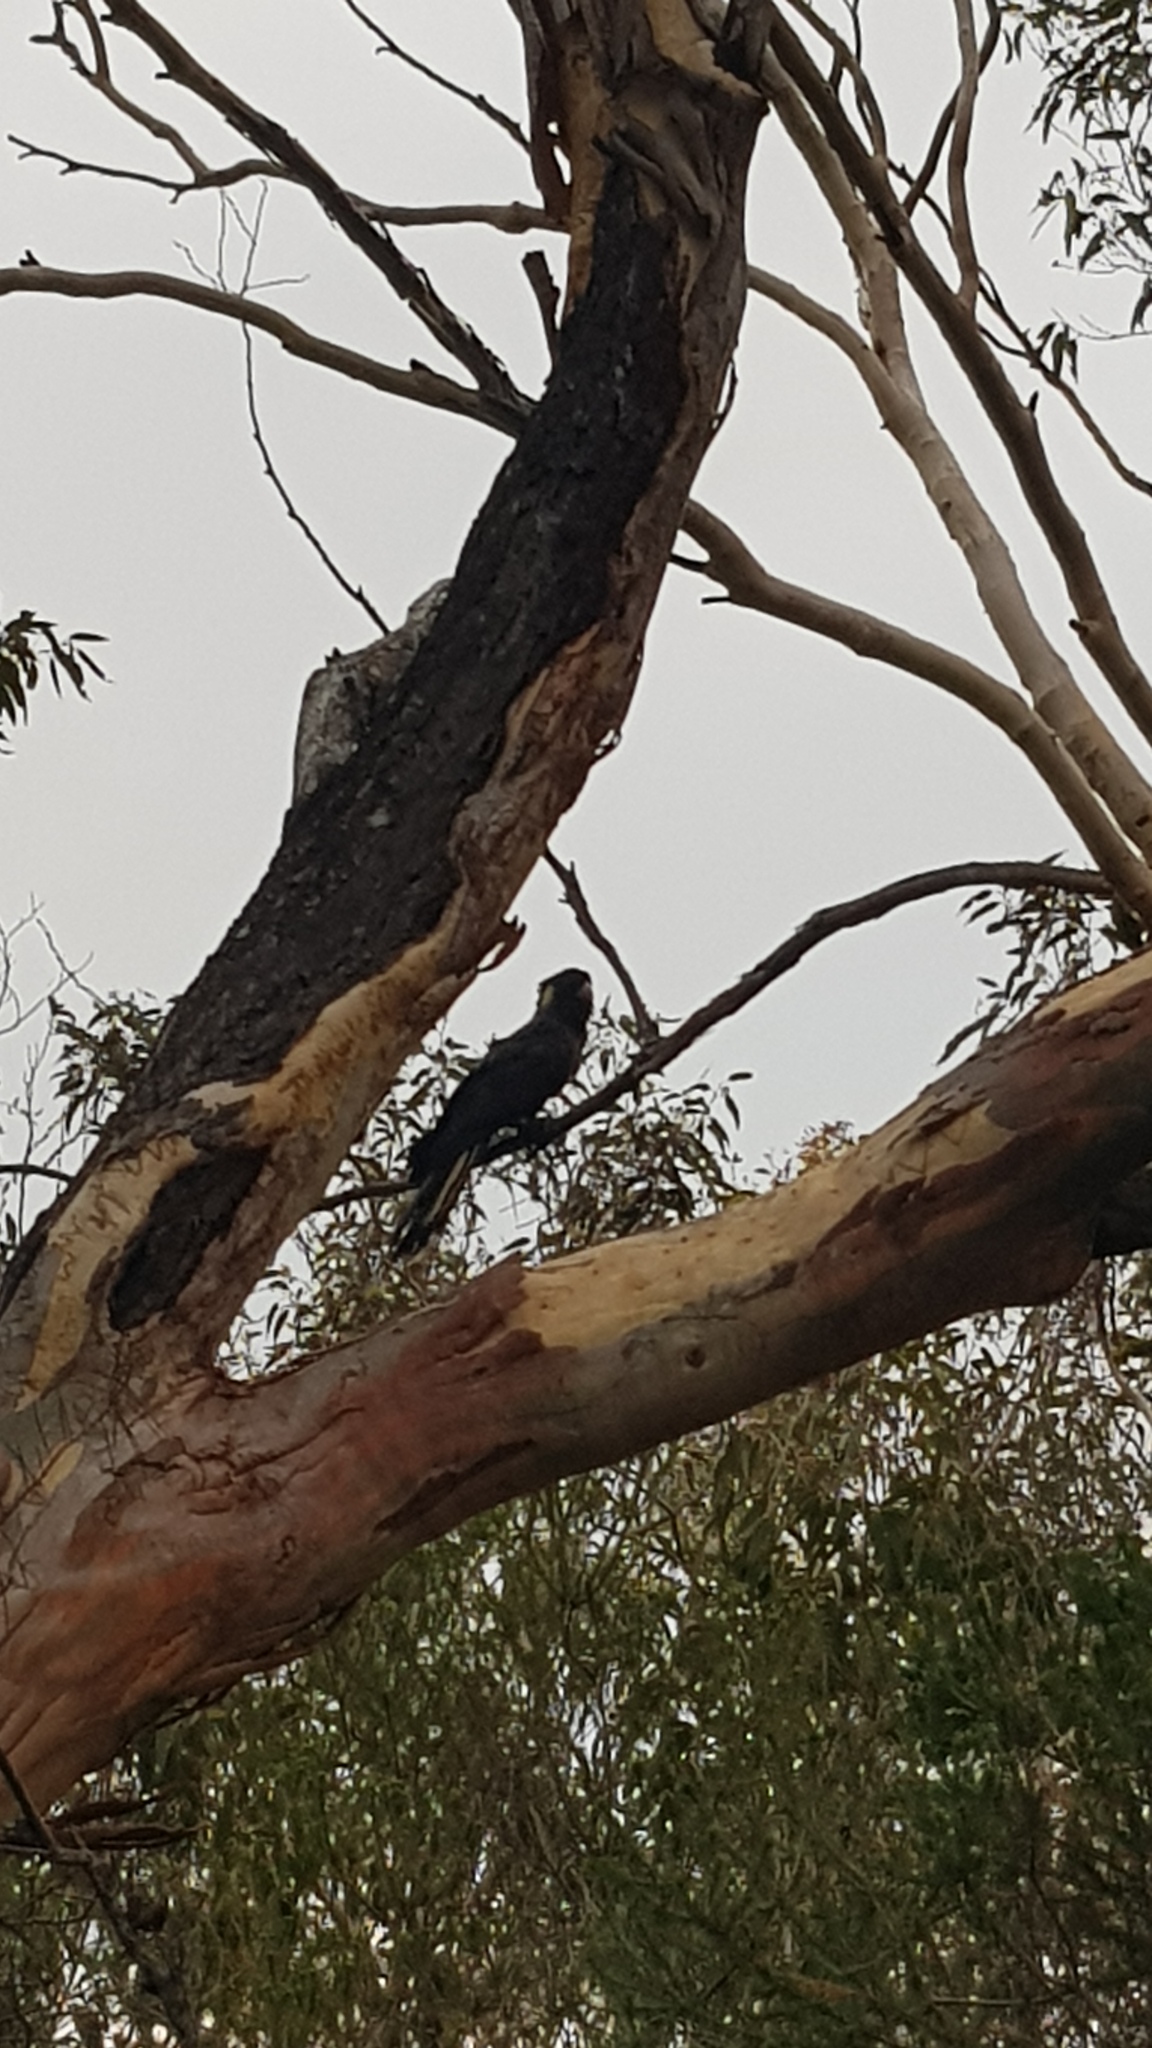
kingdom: Animalia
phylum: Chordata
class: Aves
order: Psittaciformes
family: Cacatuidae
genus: Zanda
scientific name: Zanda funerea
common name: Yellow-tailed black-cockatoo
